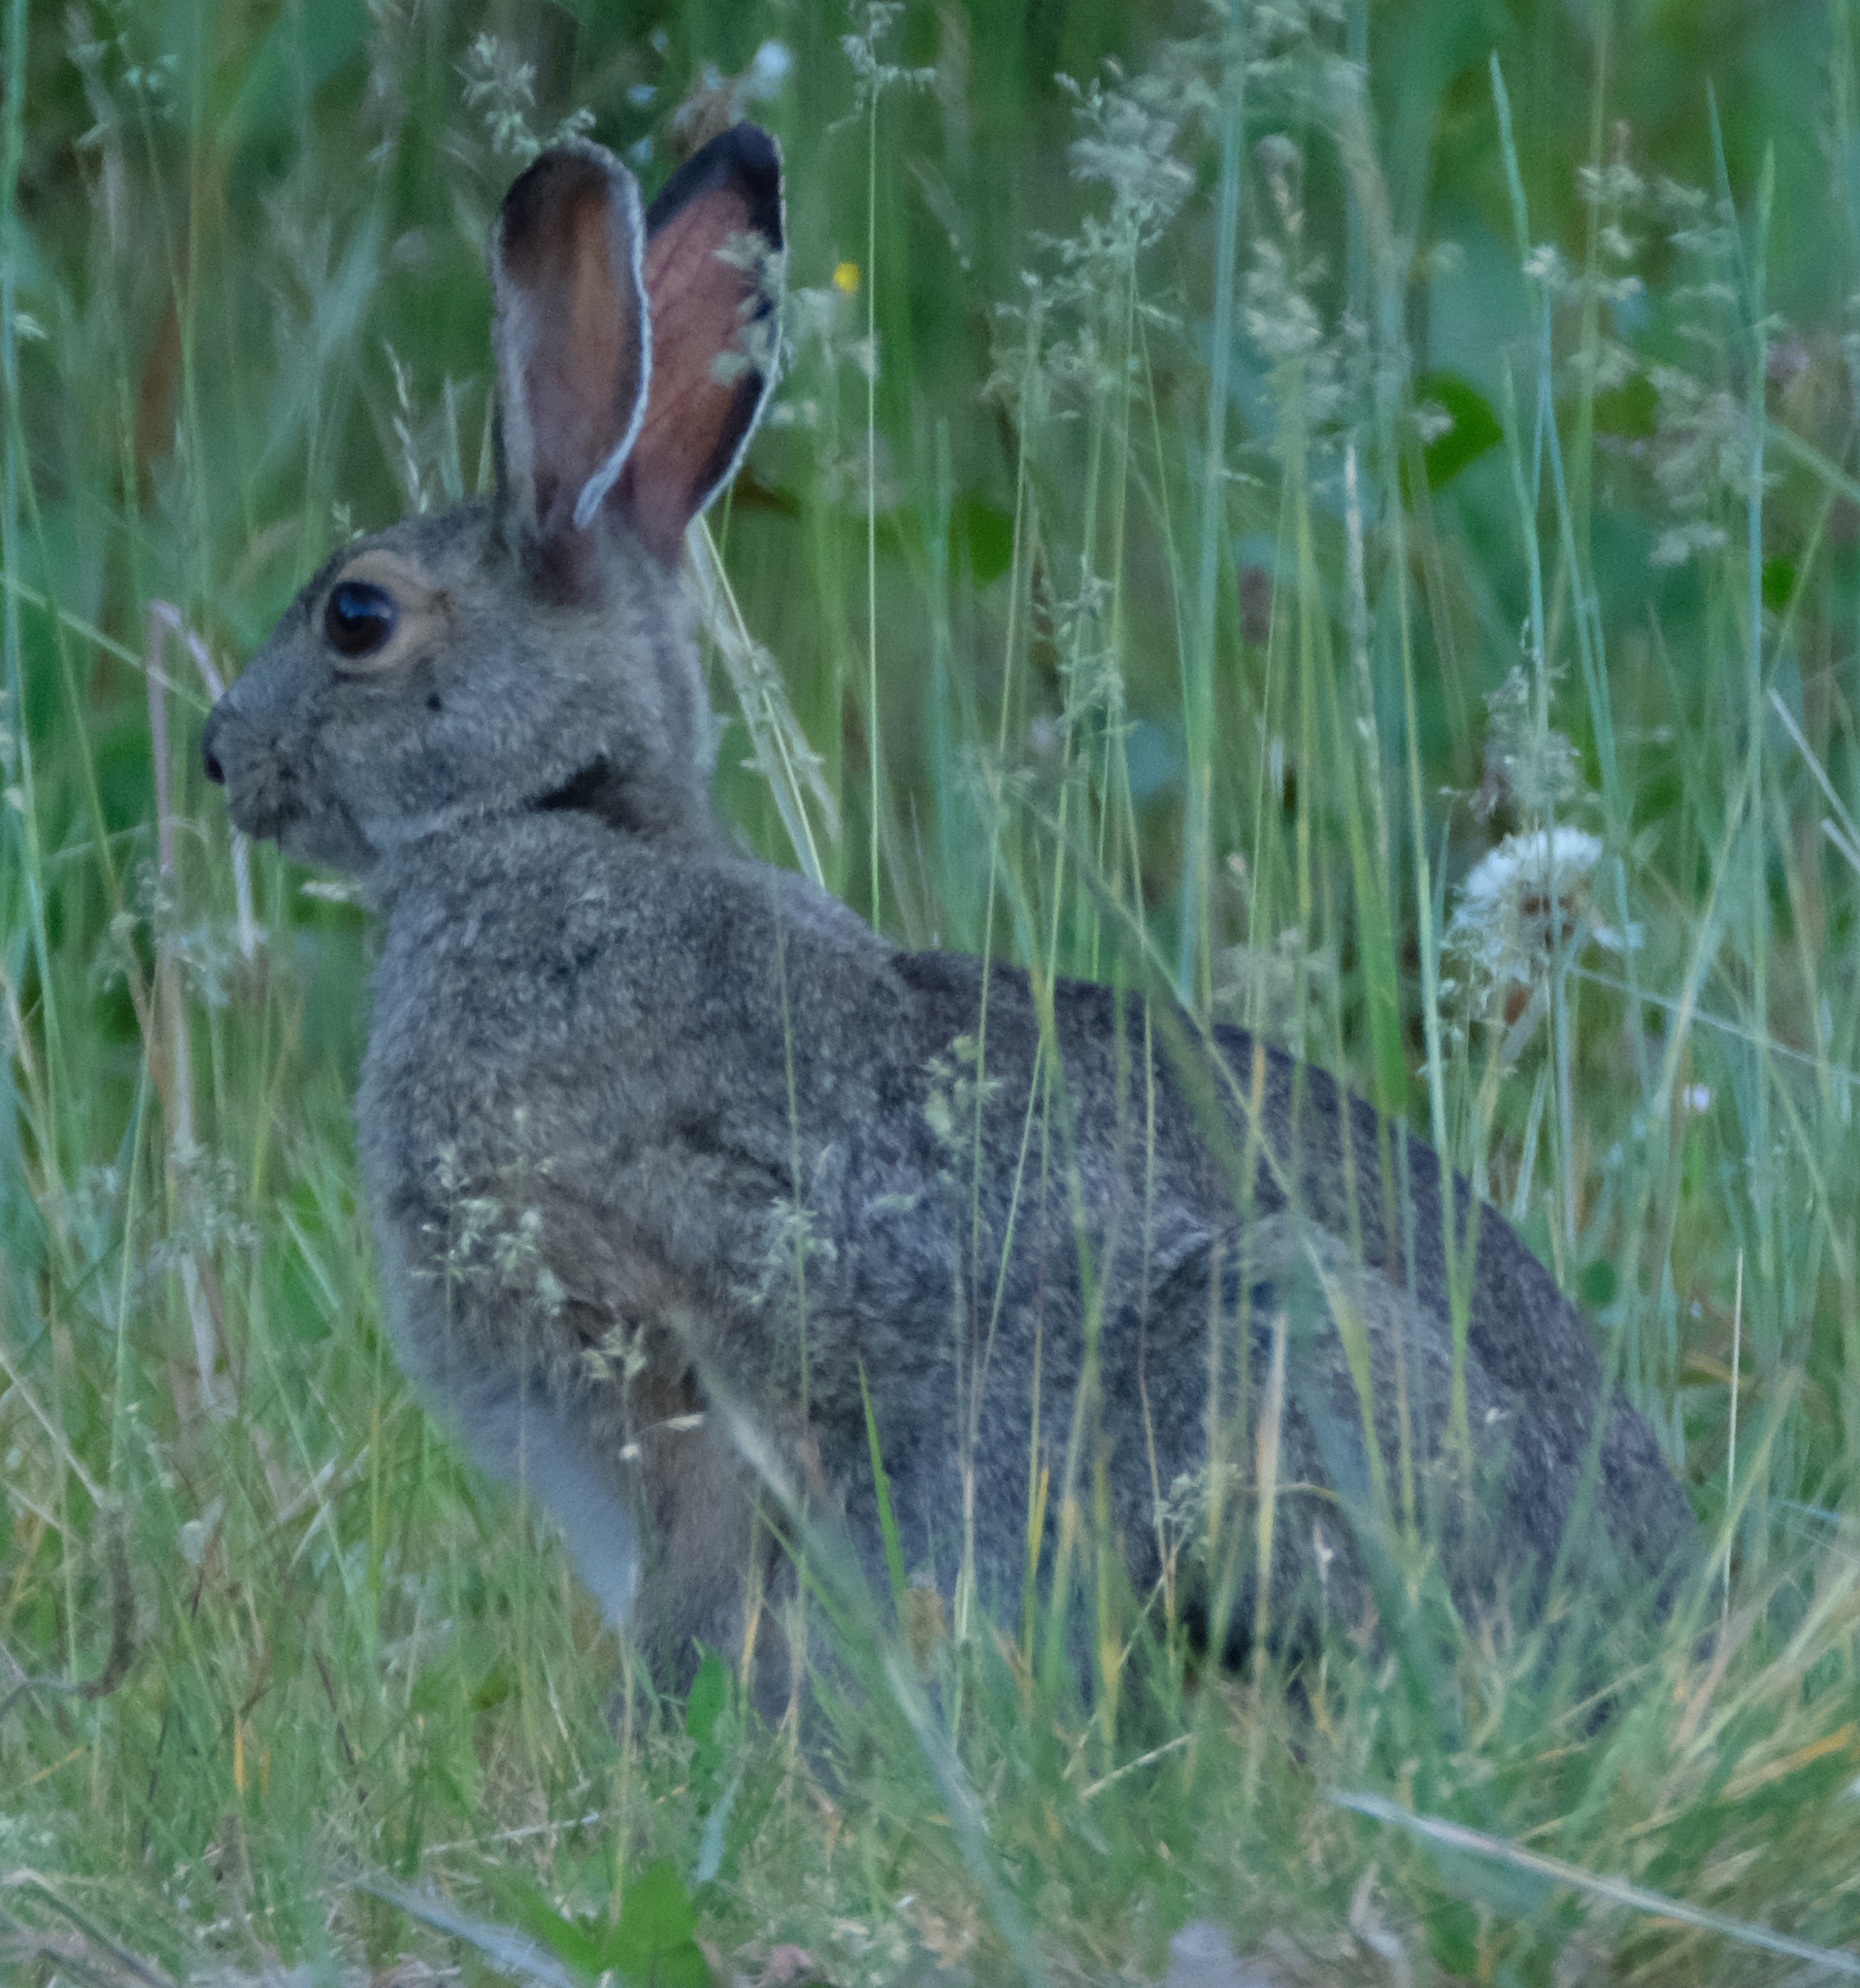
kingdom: Animalia
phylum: Chordata
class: Mammalia
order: Lagomorpha
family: Leporidae
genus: Lepus
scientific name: Lepus americanus
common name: Snowshoe hare
